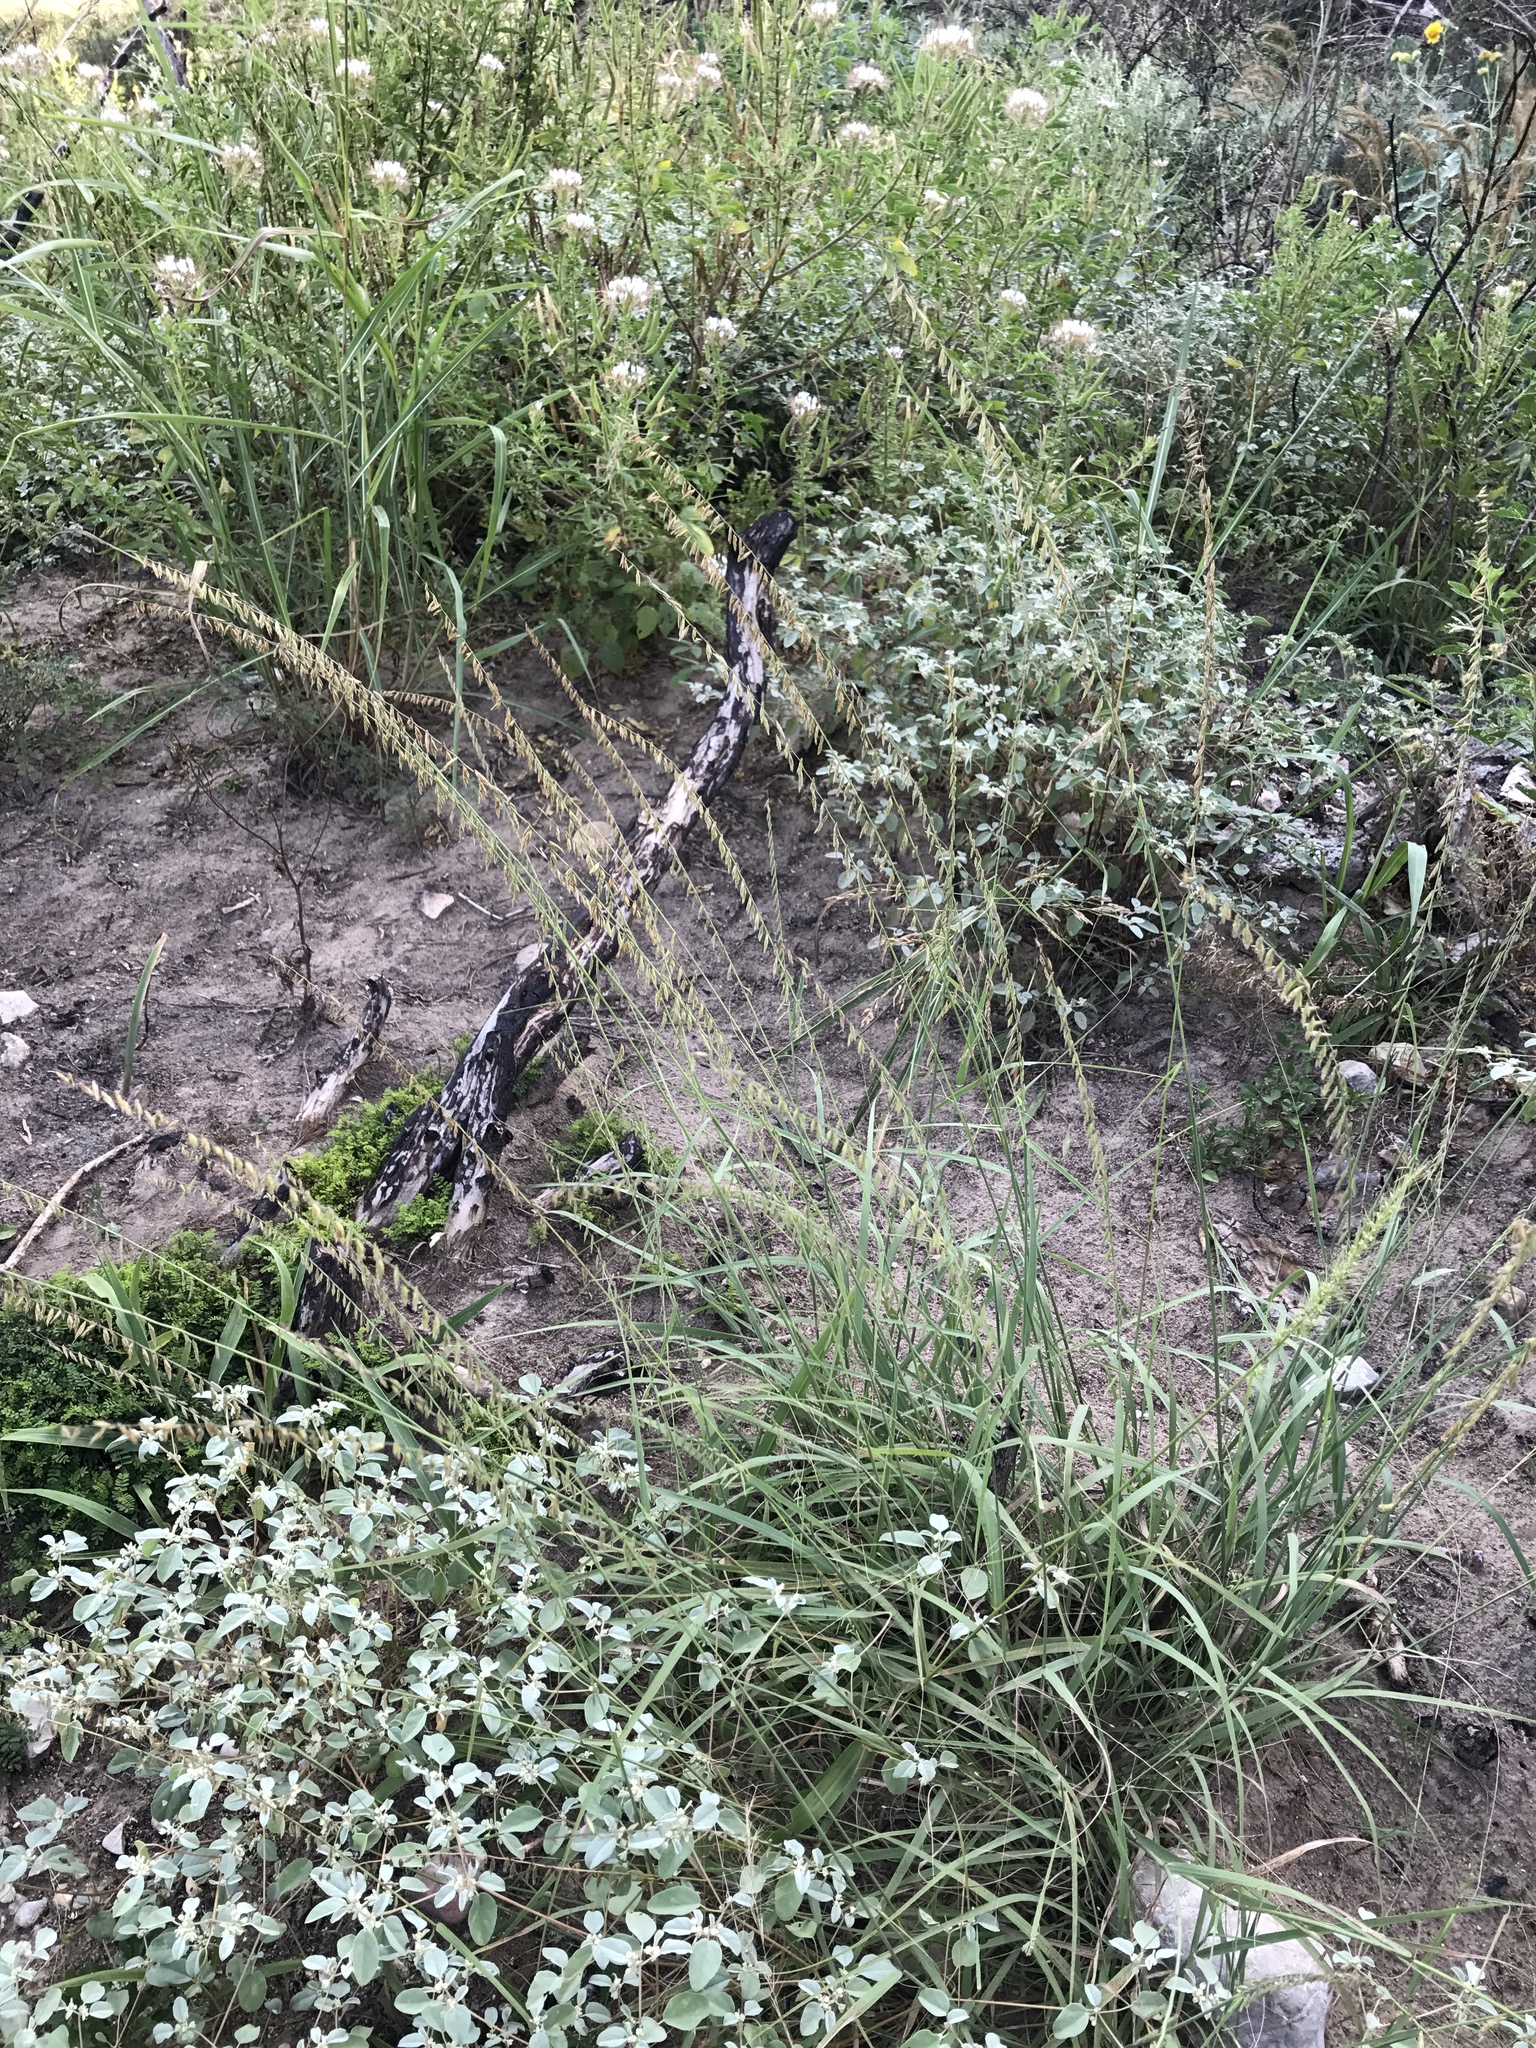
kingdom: Plantae
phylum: Tracheophyta
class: Liliopsida
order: Poales
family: Poaceae
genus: Bouteloua
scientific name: Bouteloua curtipendula
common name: Side-oats grama
